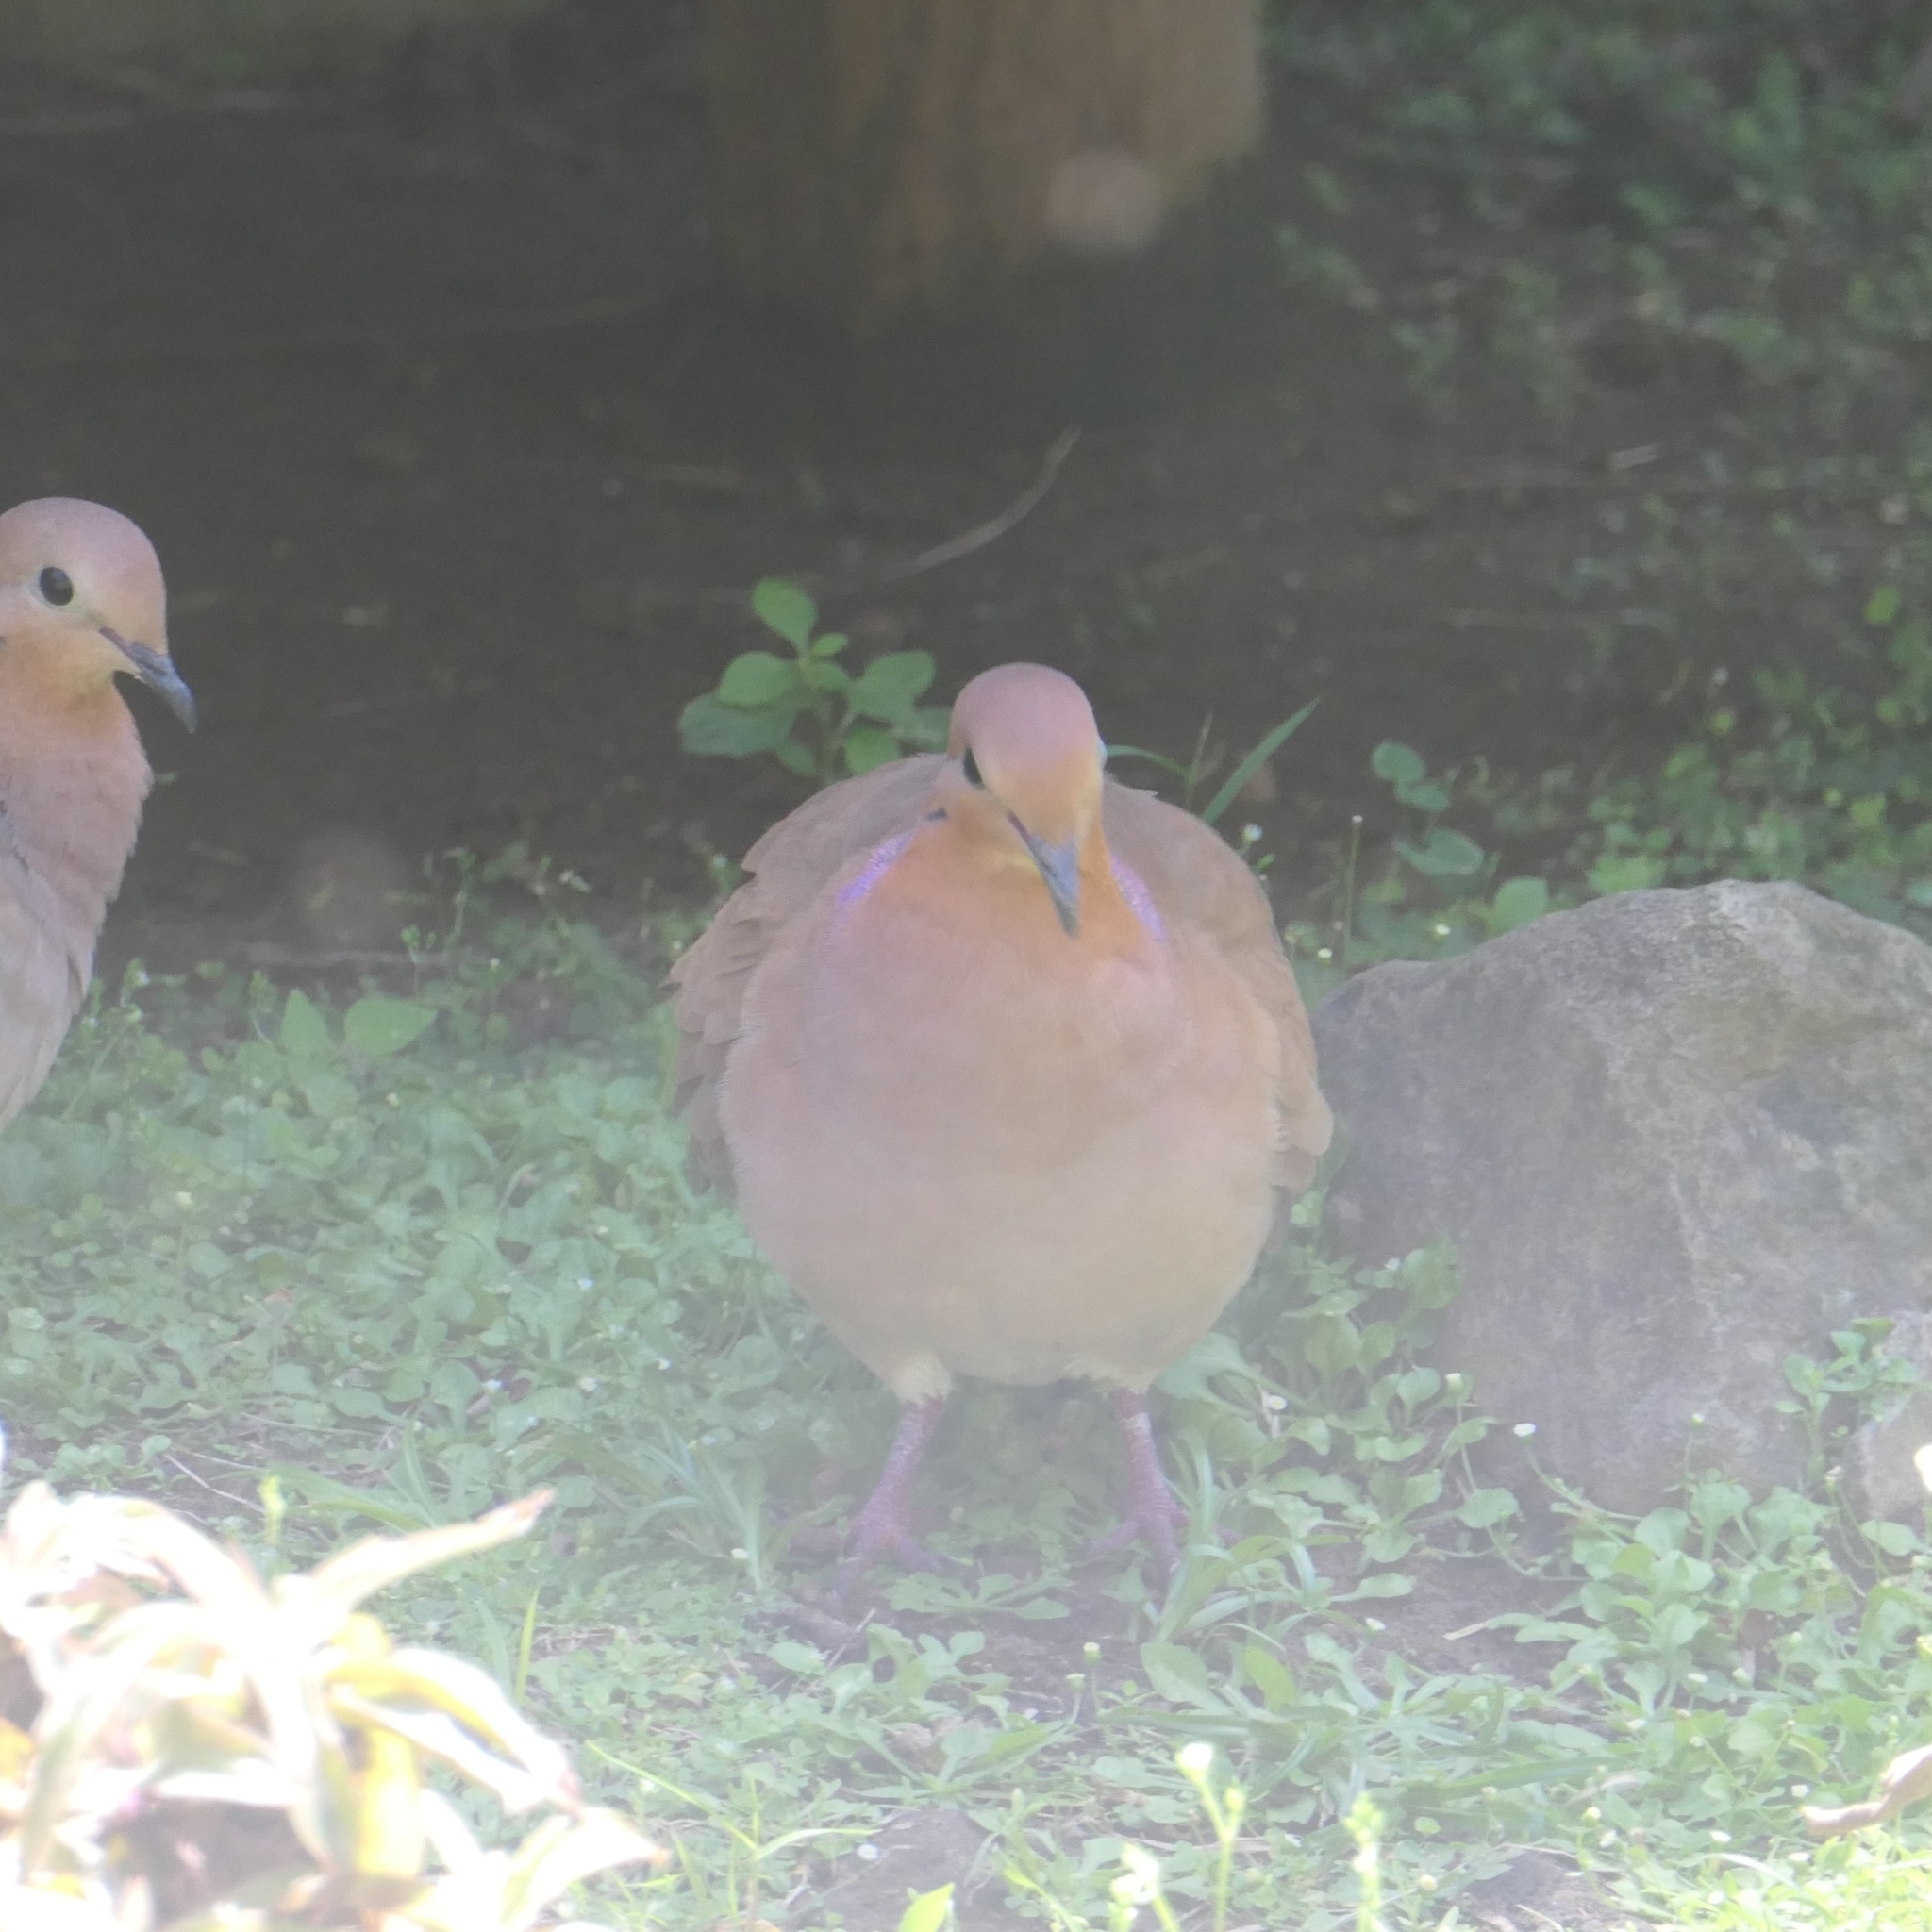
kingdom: Animalia
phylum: Chordata
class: Aves
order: Columbiformes
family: Columbidae
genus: Zenaida
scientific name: Zenaida aurita
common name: Zenaida dove
